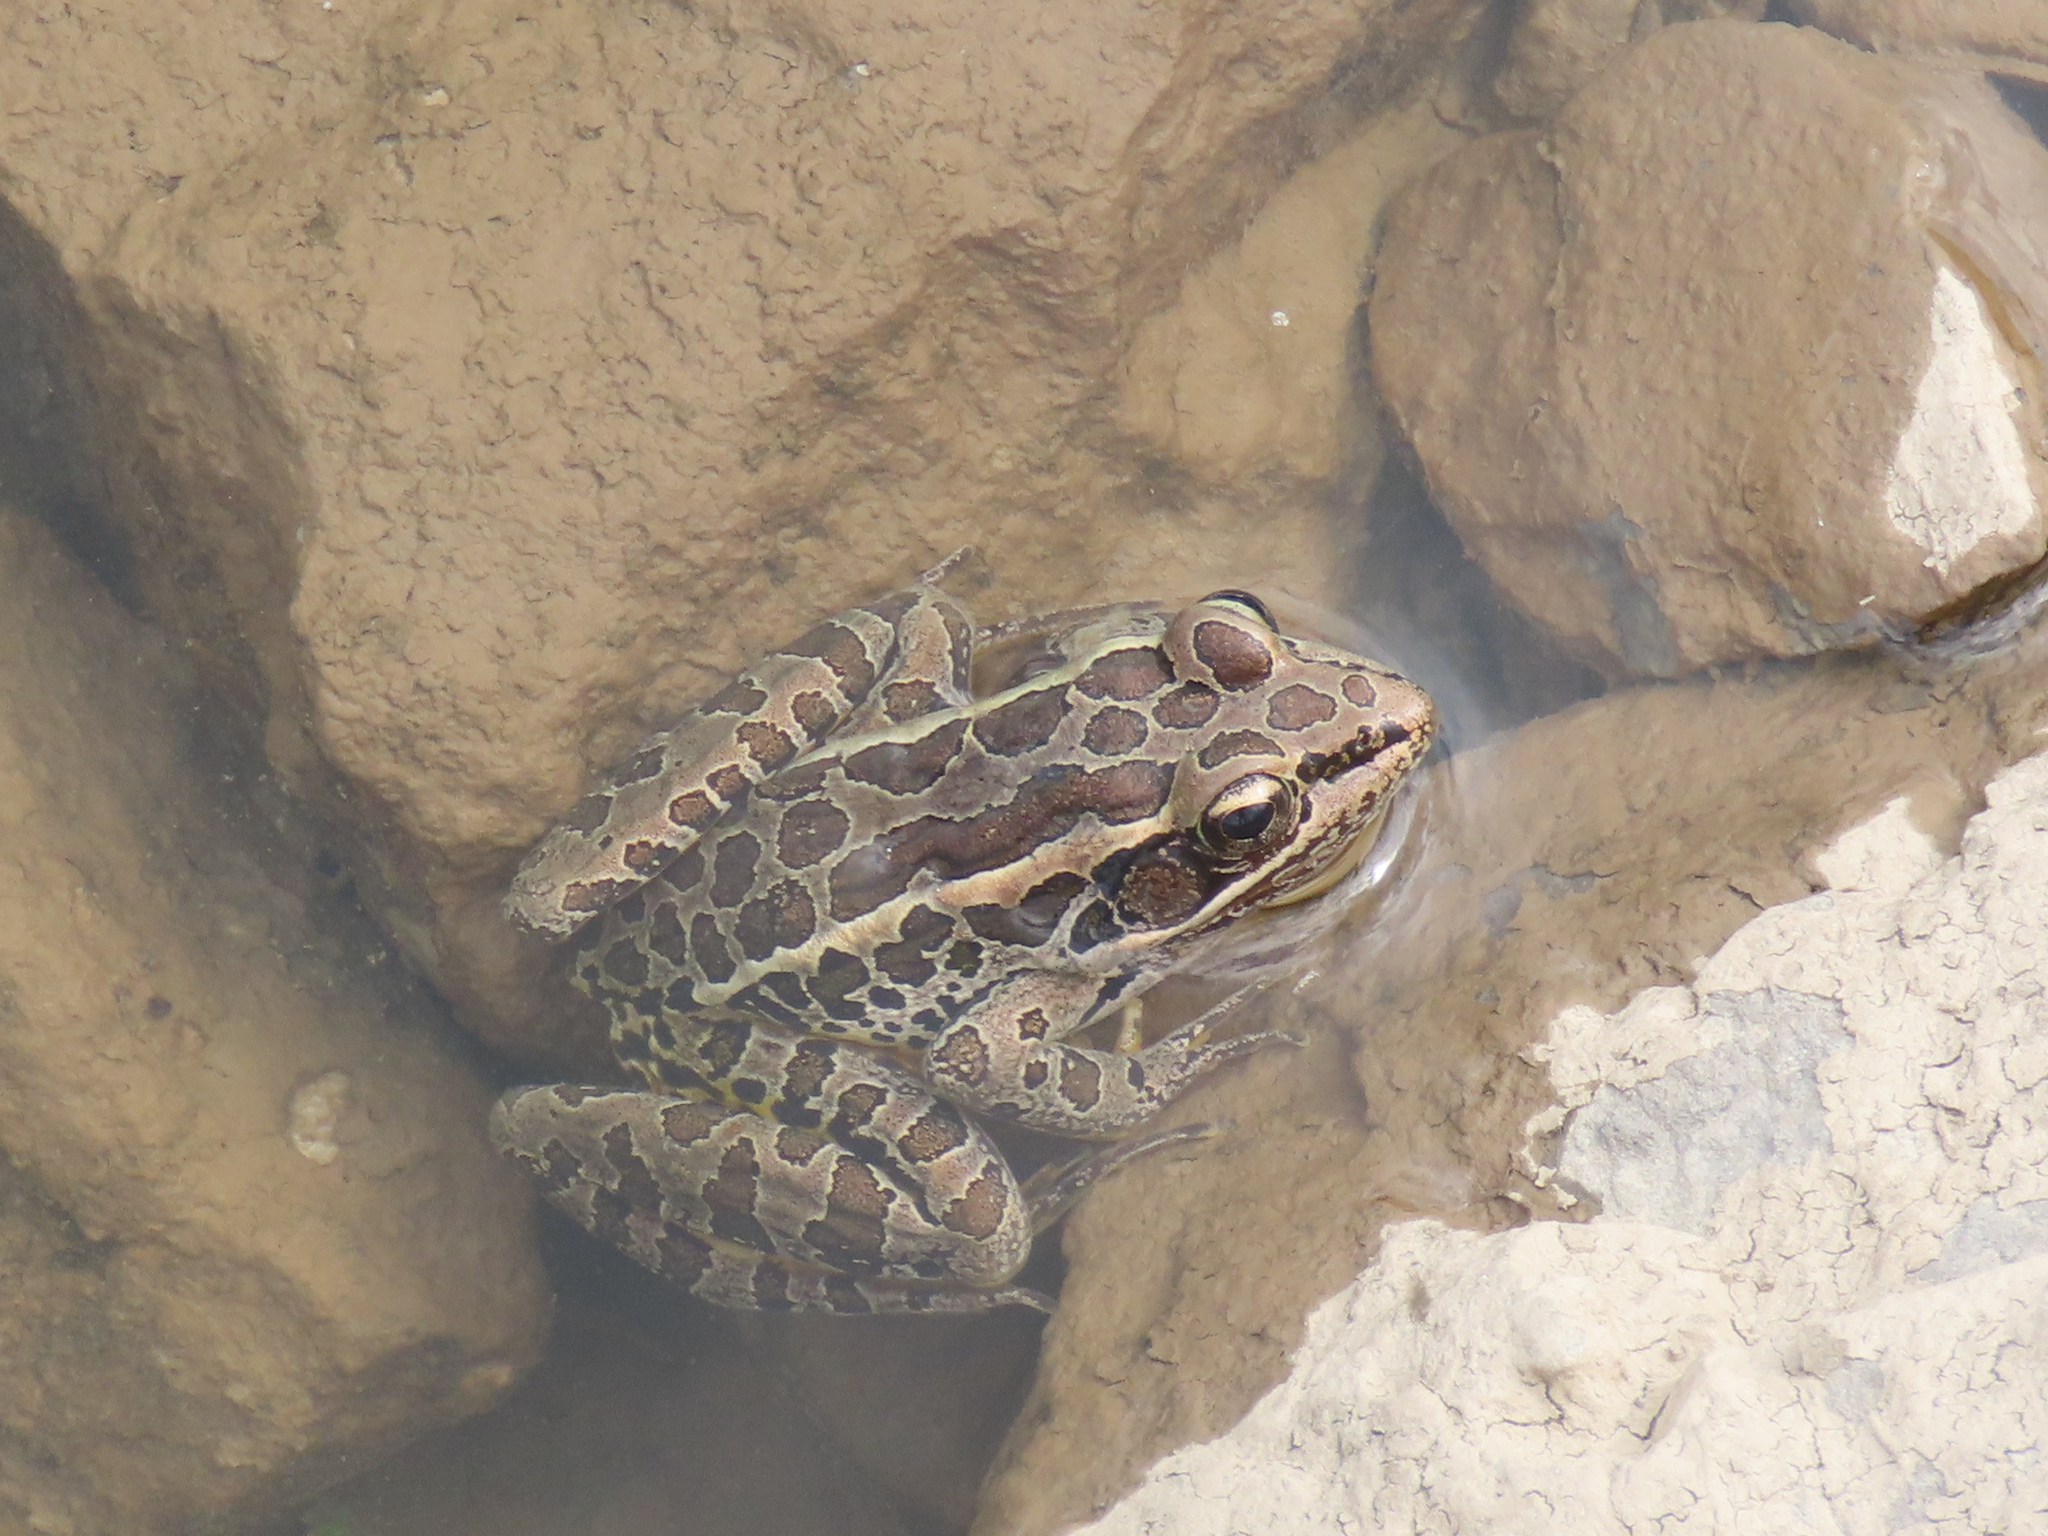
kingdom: Animalia
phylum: Chordata
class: Amphibia
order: Anura
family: Ranidae
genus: Lithobates
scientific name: Lithobates palustris
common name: Pickerel frog
